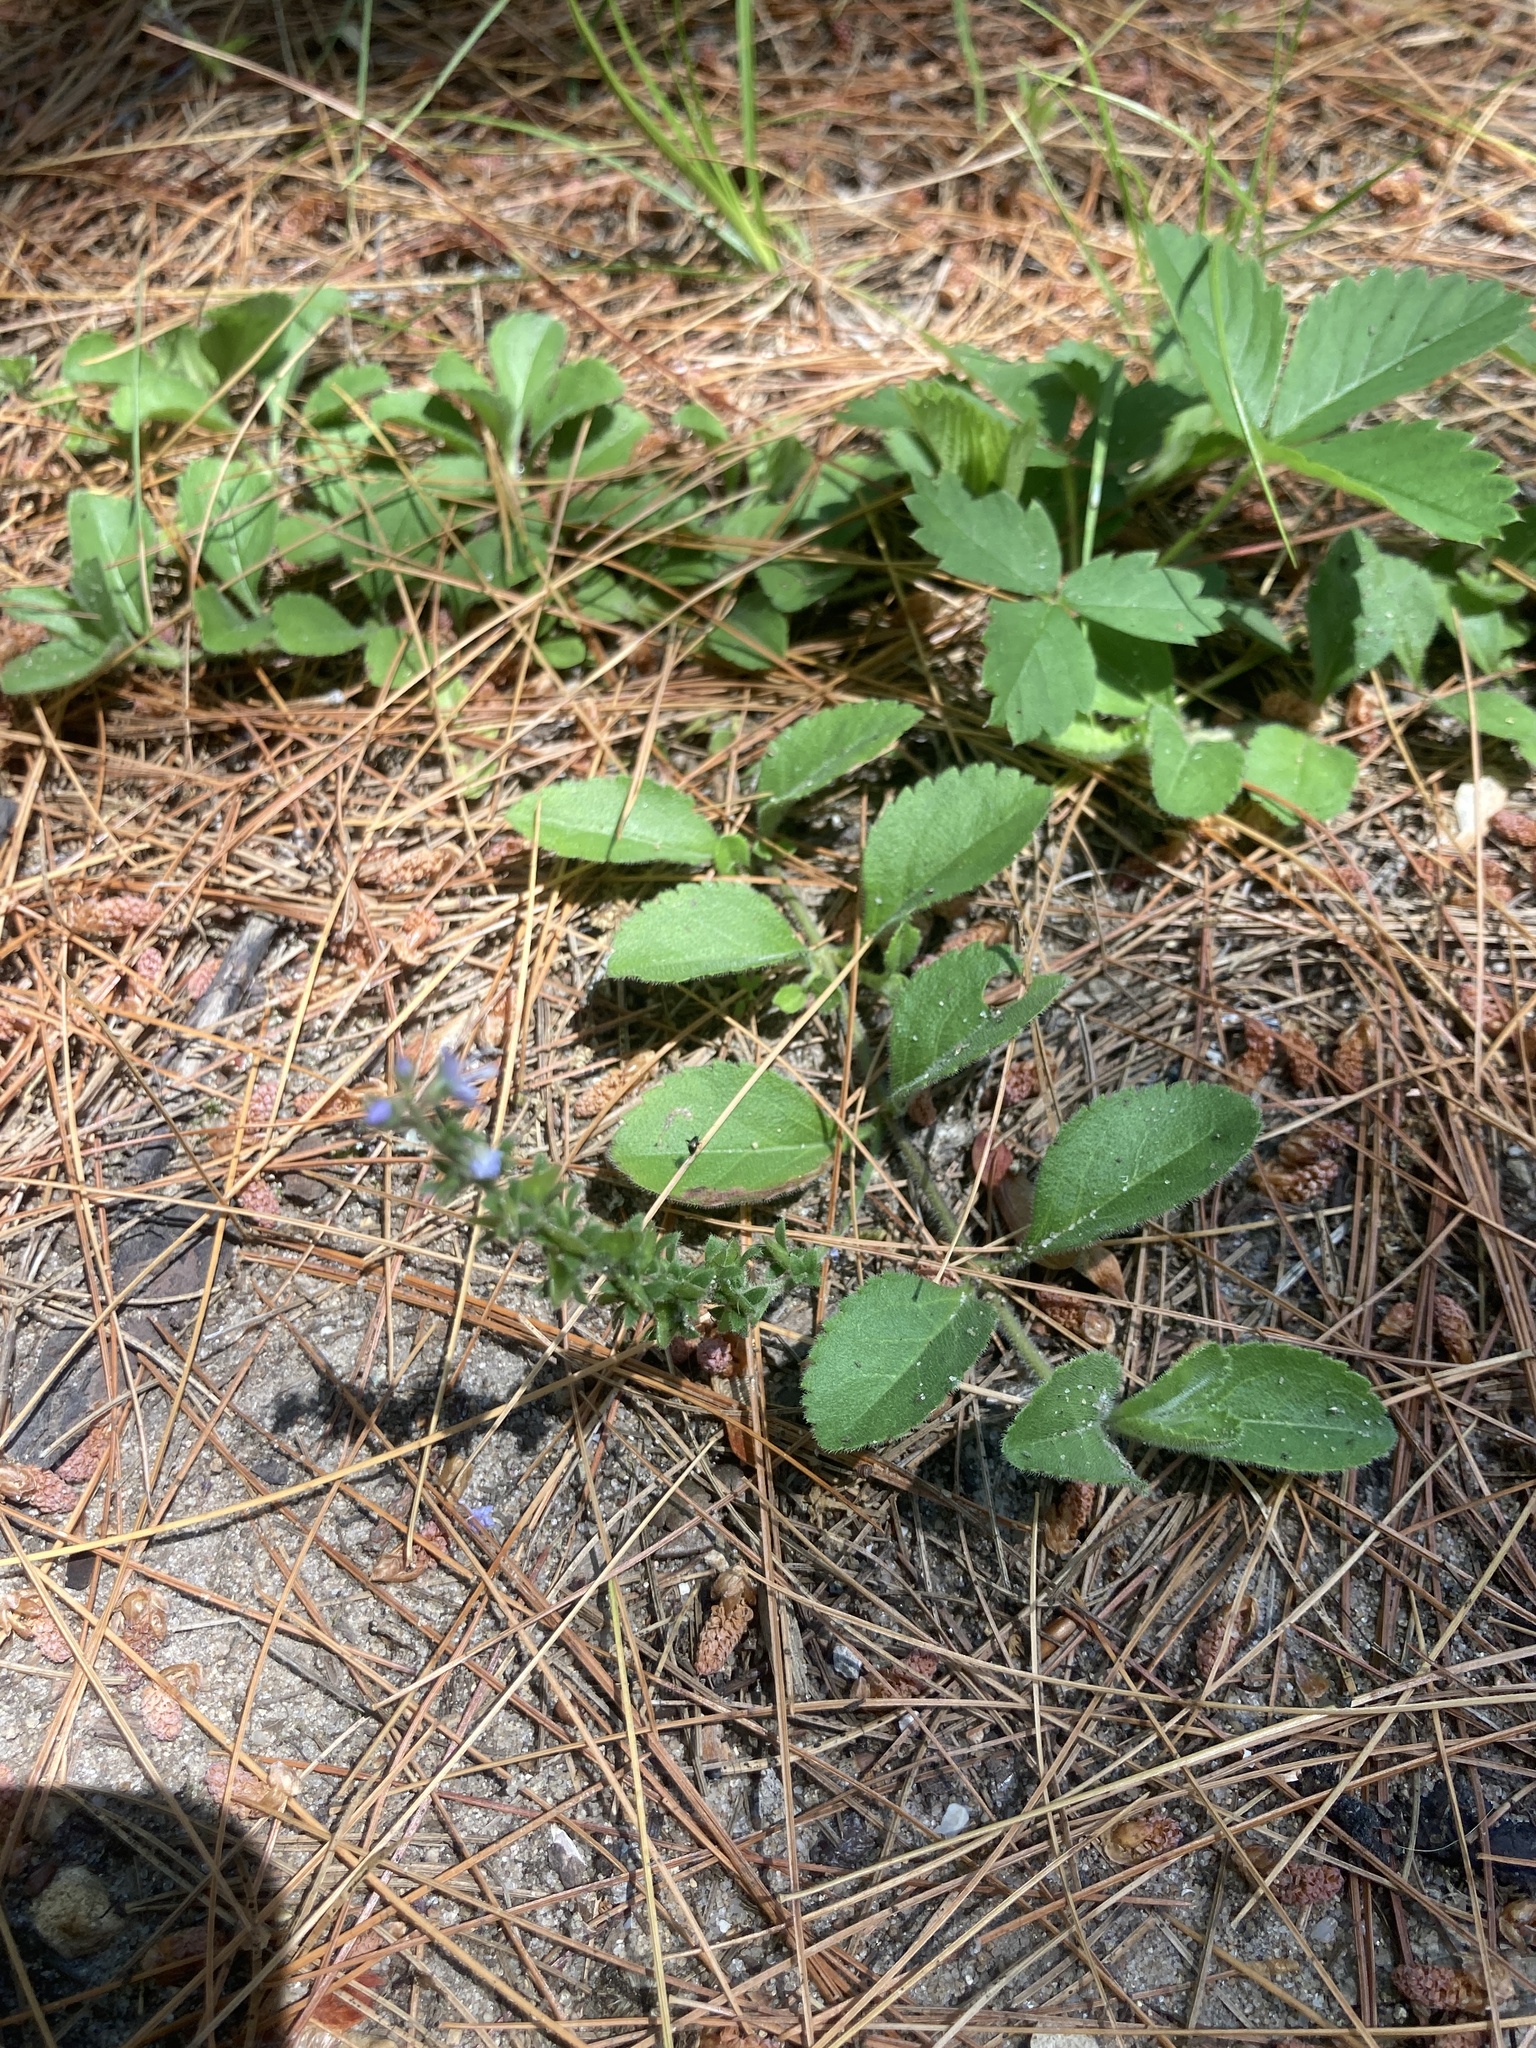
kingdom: Plantae
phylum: Tracheophyta
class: Magnoliopsida
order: Lamiales
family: Plantaginaceae
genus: Veronica
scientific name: Veronica officinalis
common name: Common speedwell
